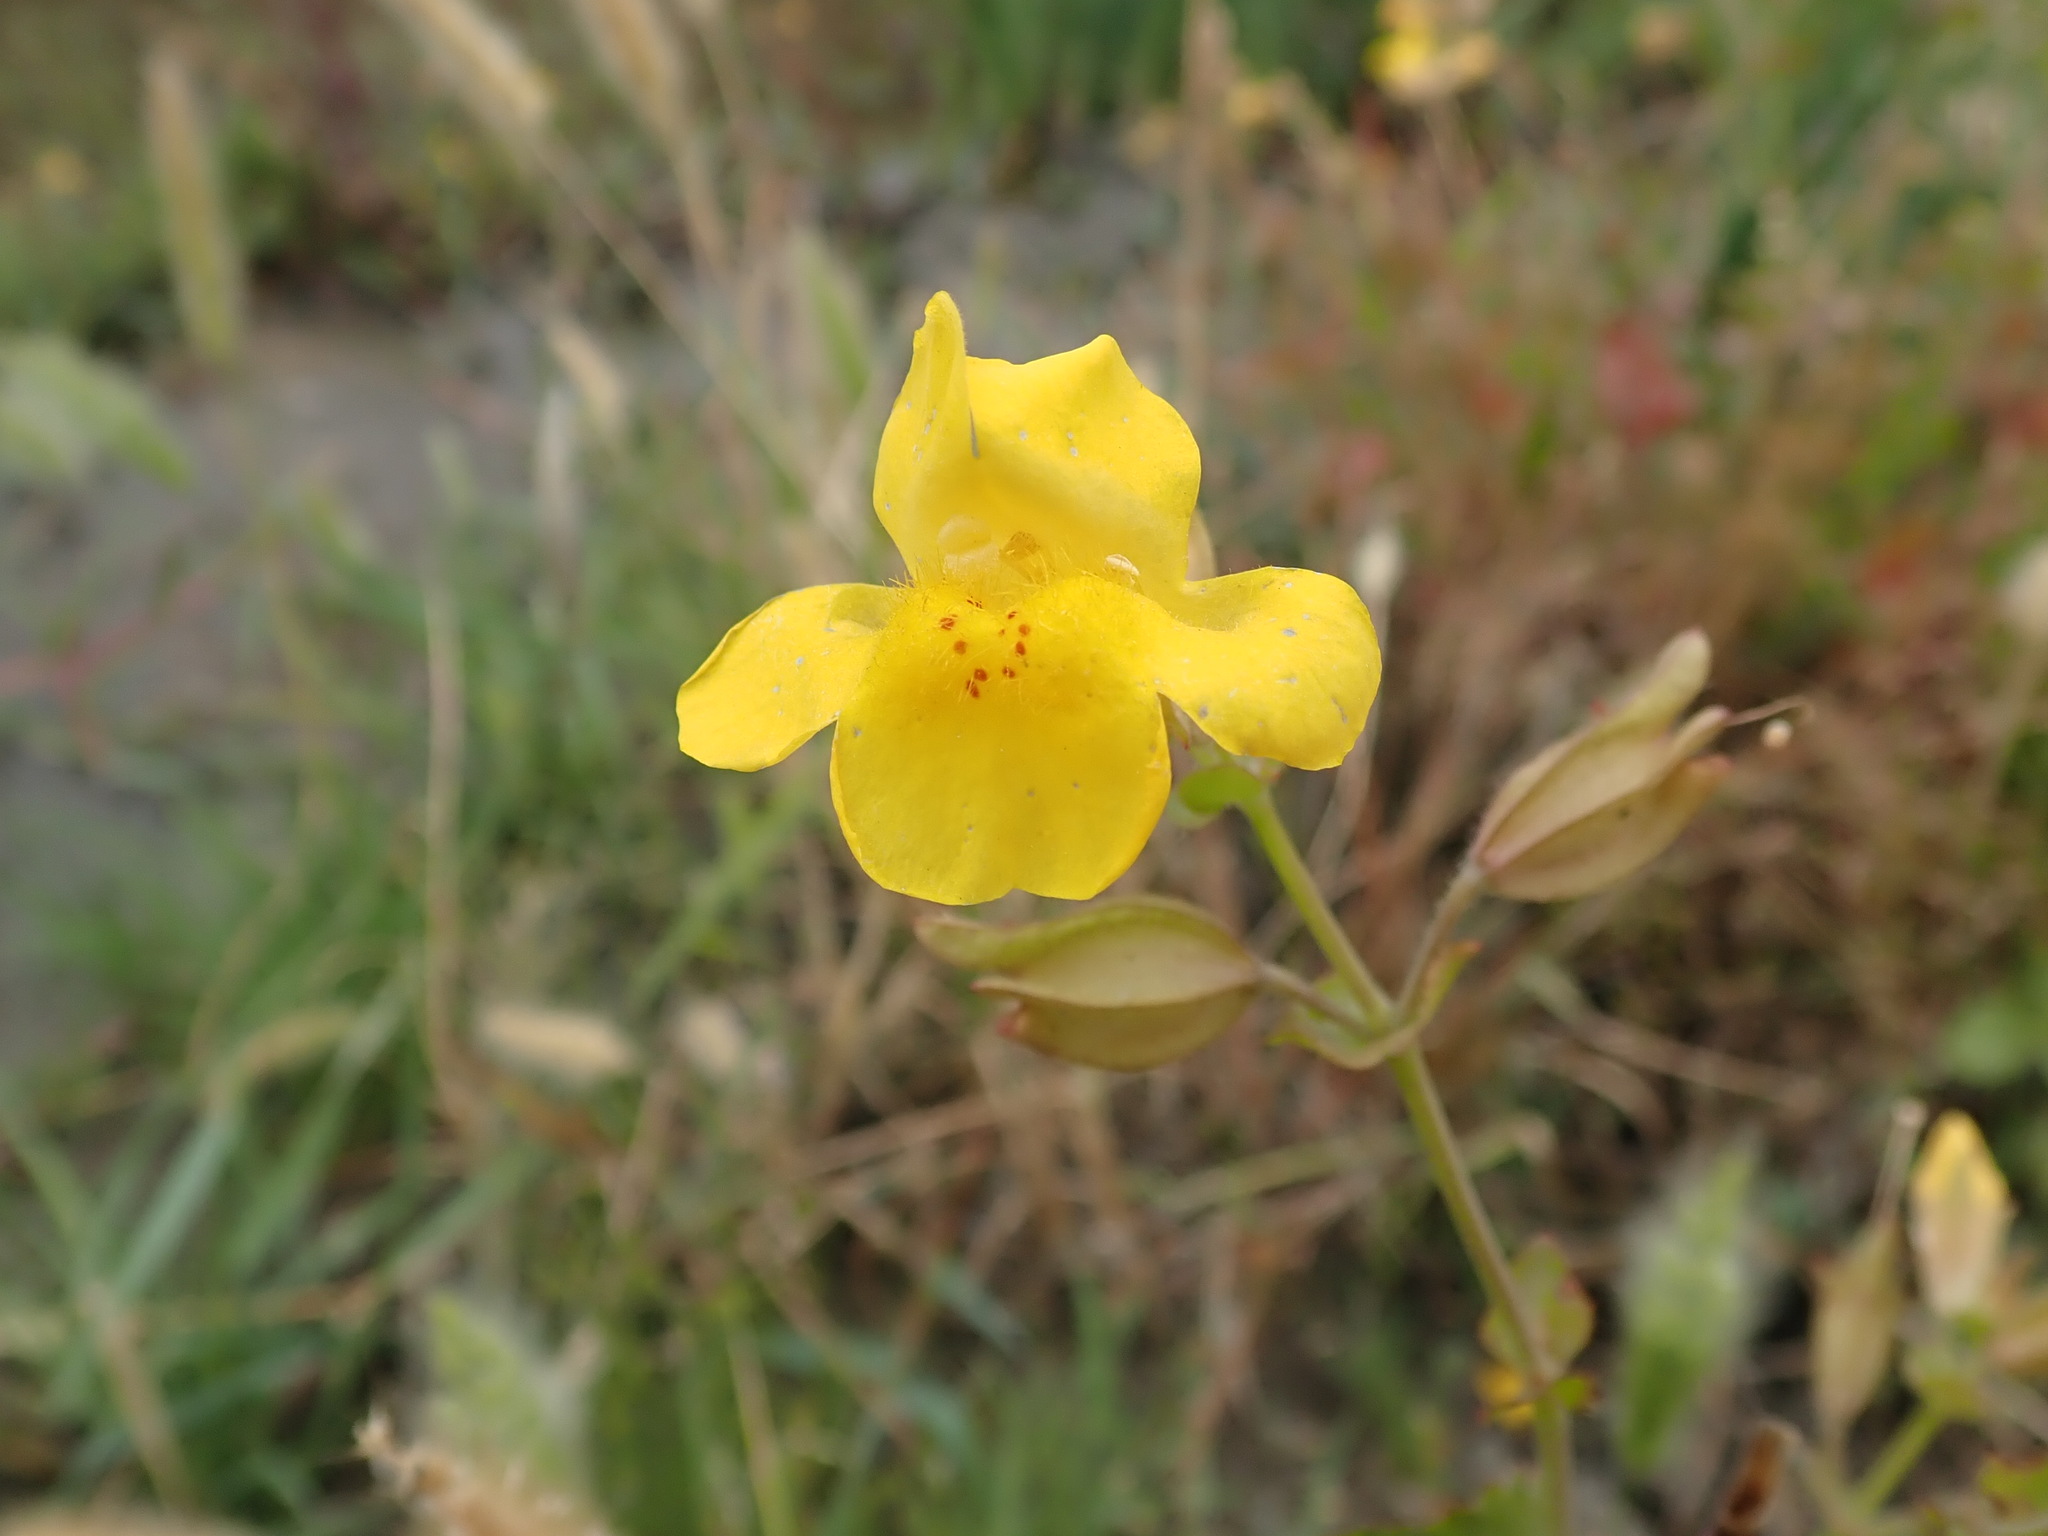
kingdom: Plantae
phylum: Tracheophyta
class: Magnoliopsida
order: Lamiales
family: Phrymaceae
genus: Erythranthe
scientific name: Erythranthe guttata
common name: Monkeyflower
